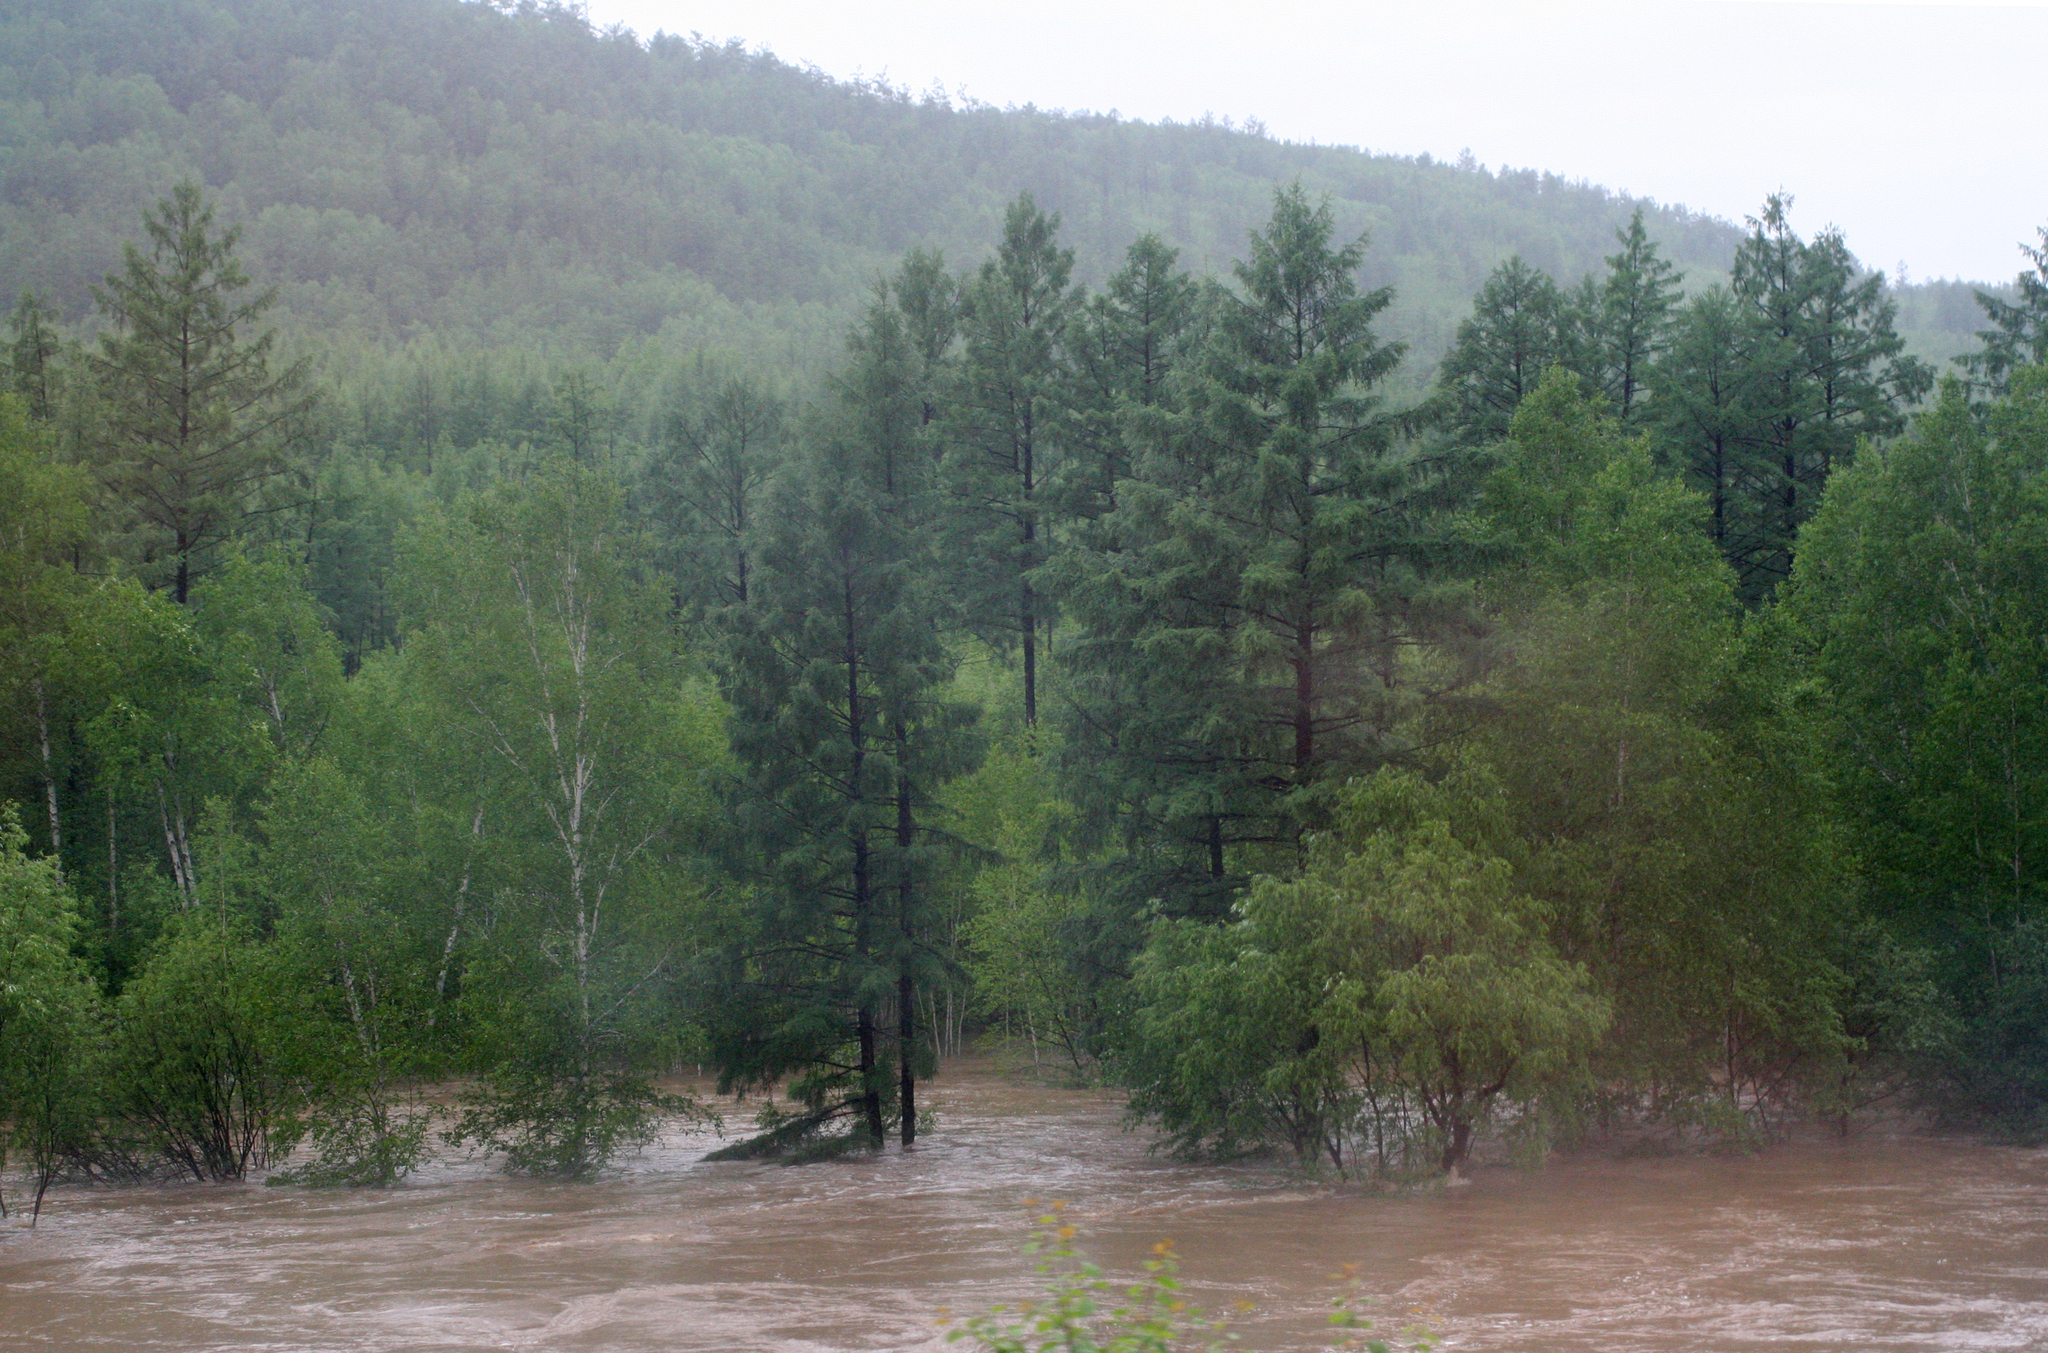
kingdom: Plantae
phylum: Tracheophyta
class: Pinopsida
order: Pinales
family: Pinaceae
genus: Larix
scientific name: Larix gmelinii
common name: Dahurian larch
